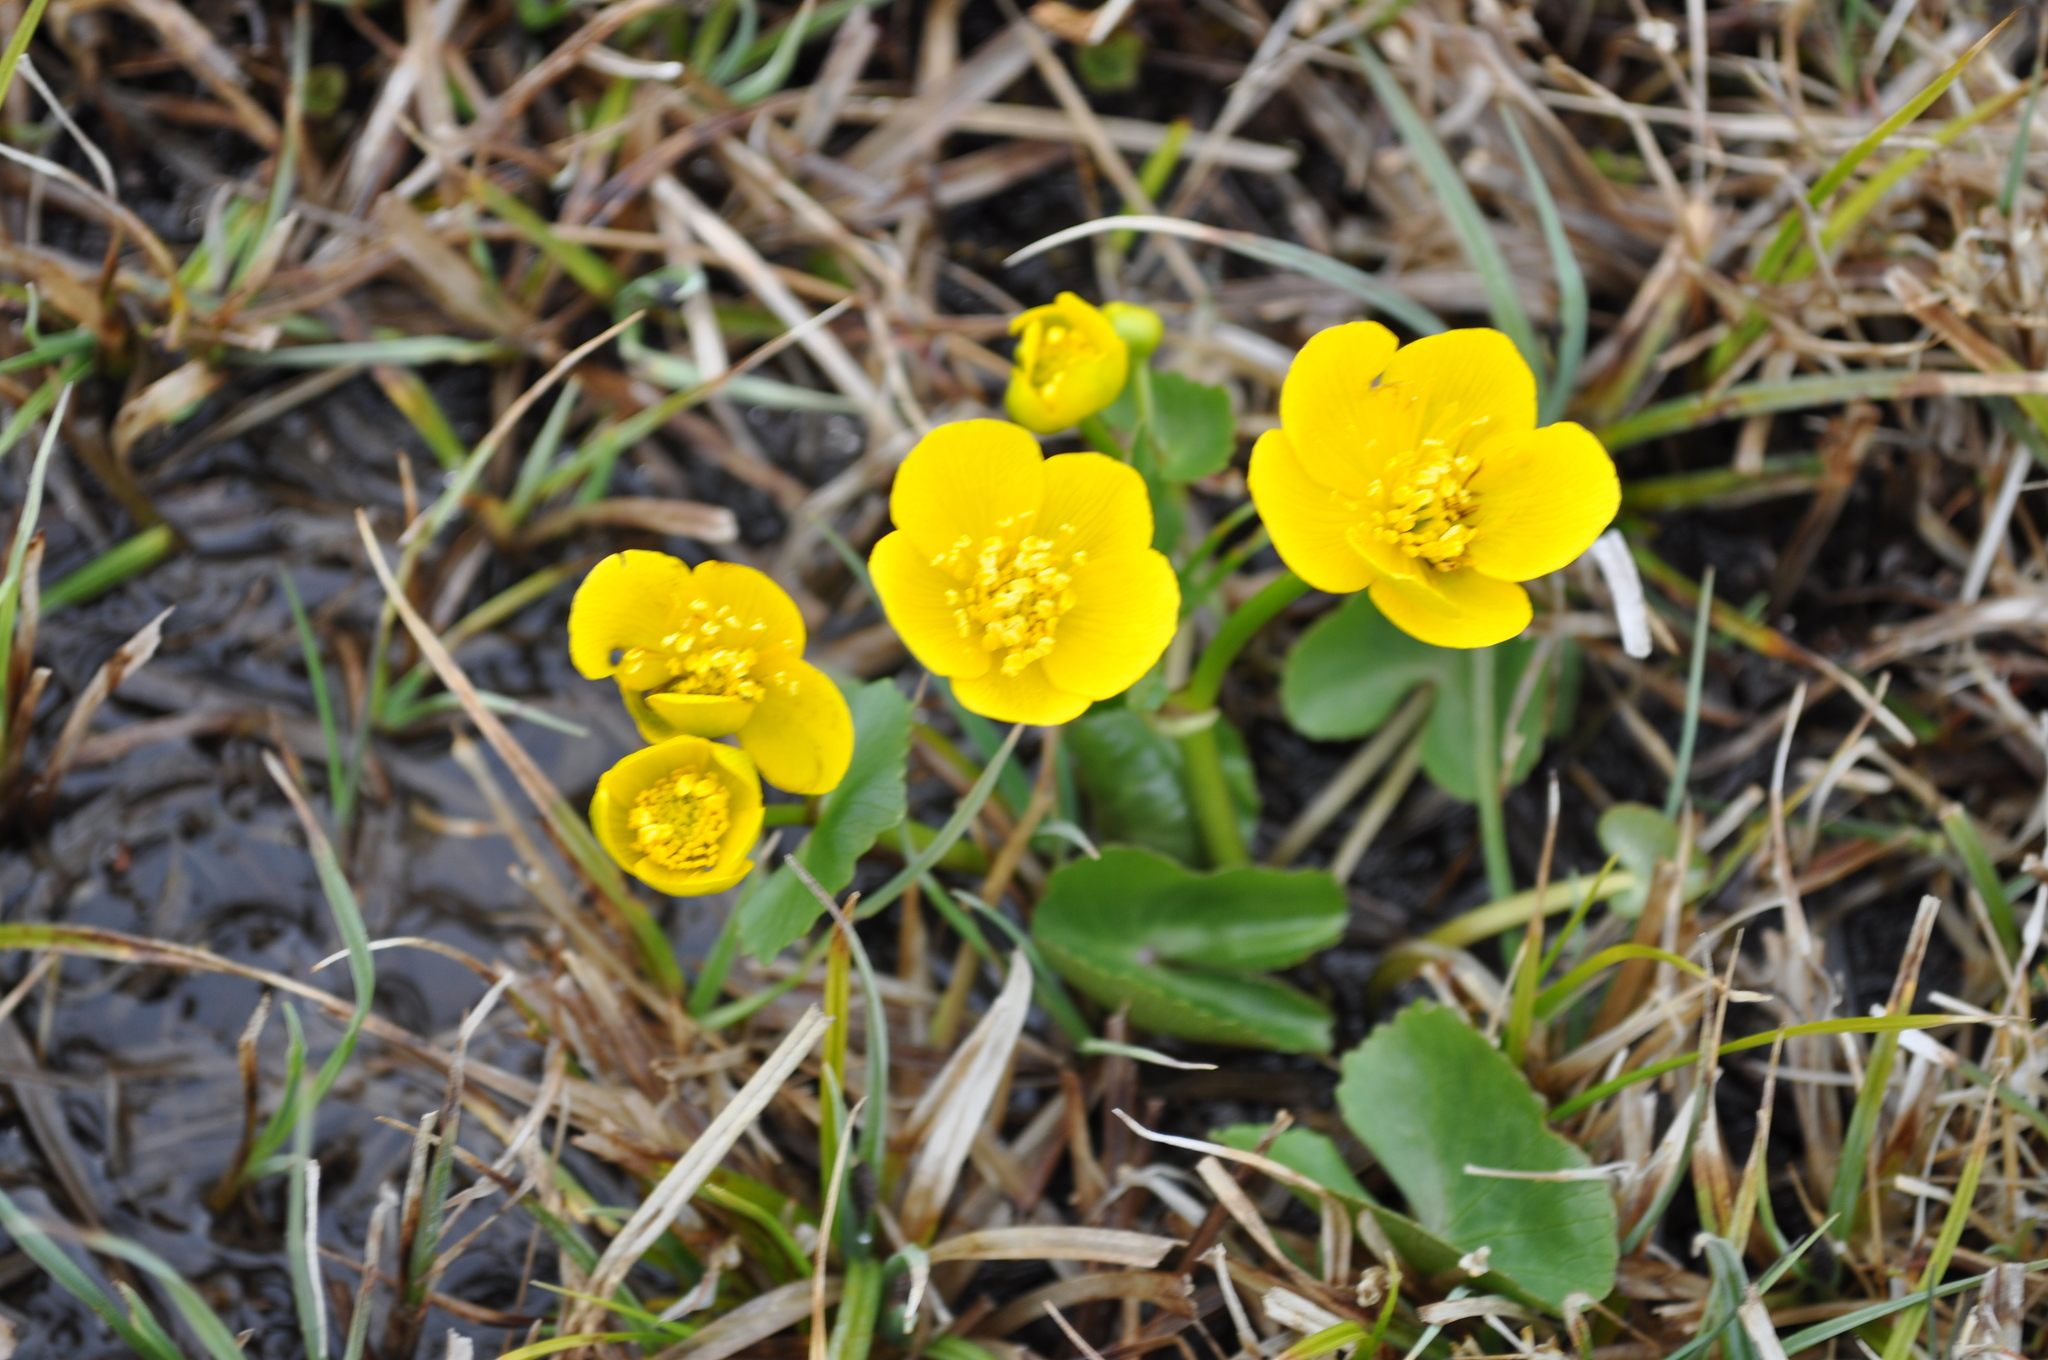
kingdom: Plantae
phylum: Tracheophyta
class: Magnoliopsida
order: Ranunculales
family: Ranunculaceae
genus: Caltha
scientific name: Caltha palustris
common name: Marsh marigold
